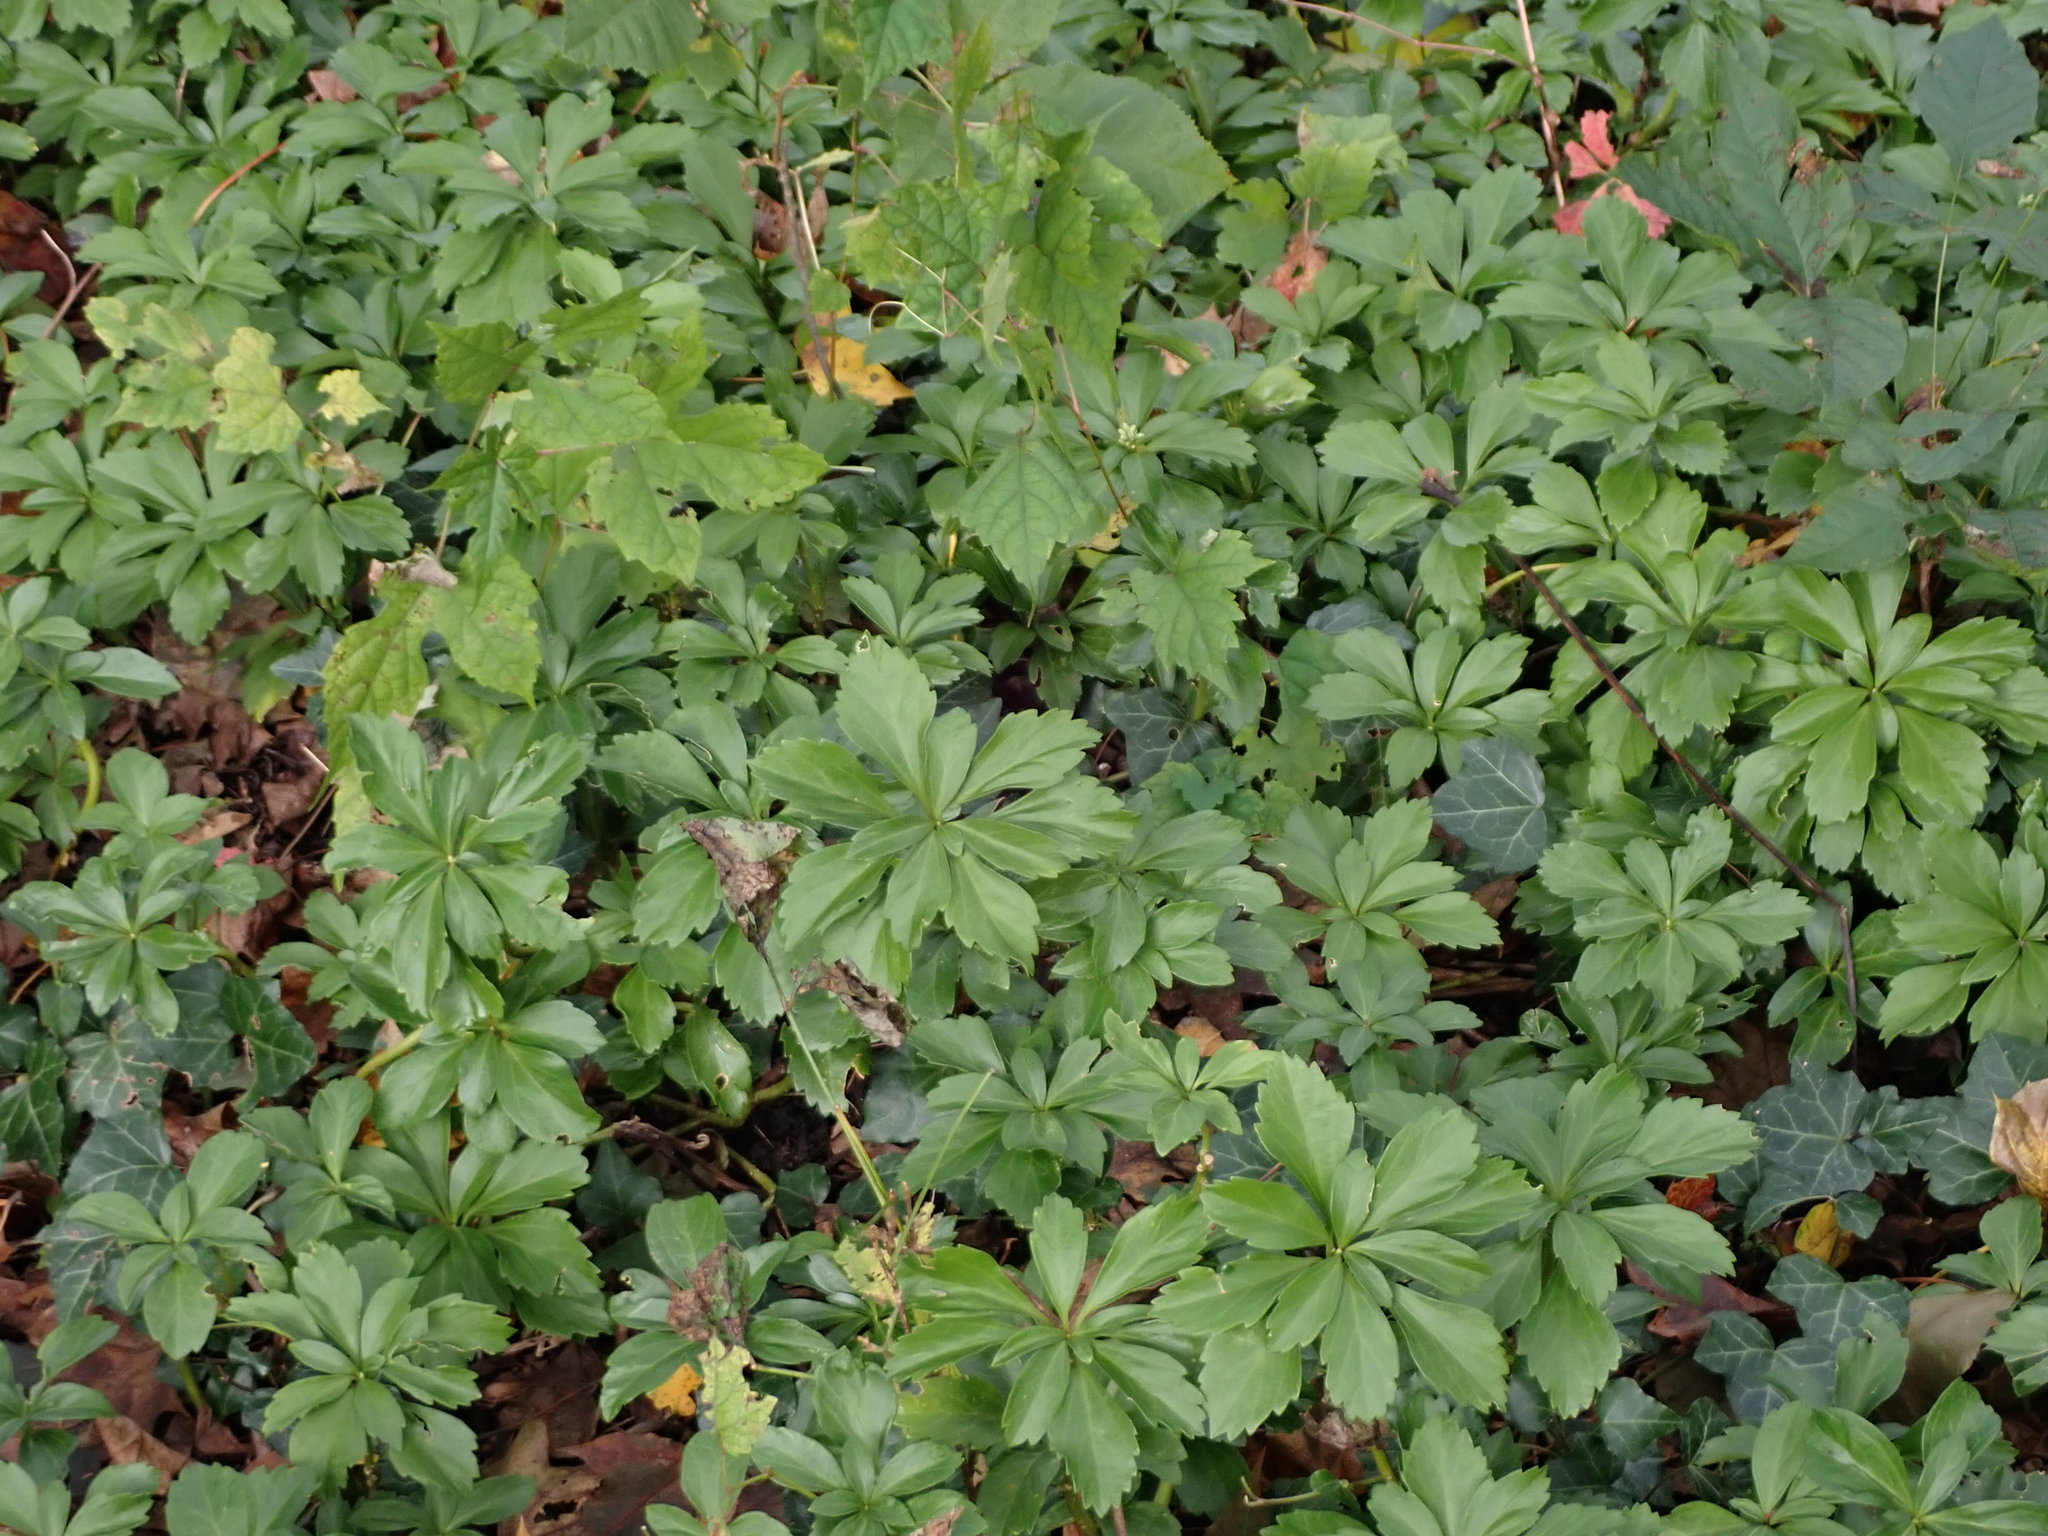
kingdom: Plantae
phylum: Tracheophyta
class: Magnoliopsida
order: Buxales
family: Buxaceae
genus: Pachysandra
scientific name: Pachysandra terminalis
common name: Japanese pachysandra
